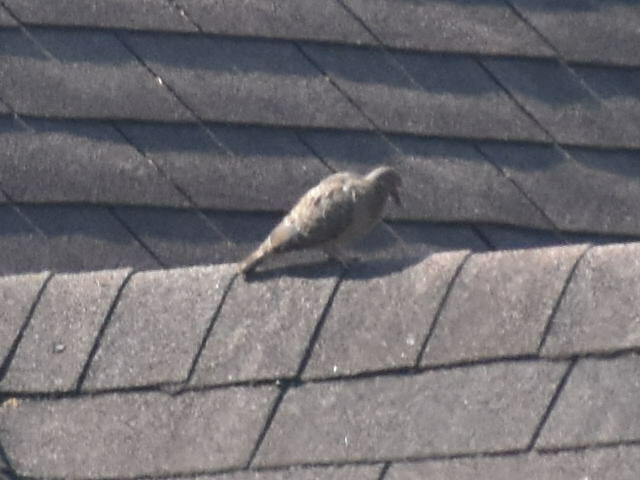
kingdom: Animalia
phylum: Chordata
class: Aves
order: Columbiformes
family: Columbidae
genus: Zenaida
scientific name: Zenaida macroura
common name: Mourning dove
